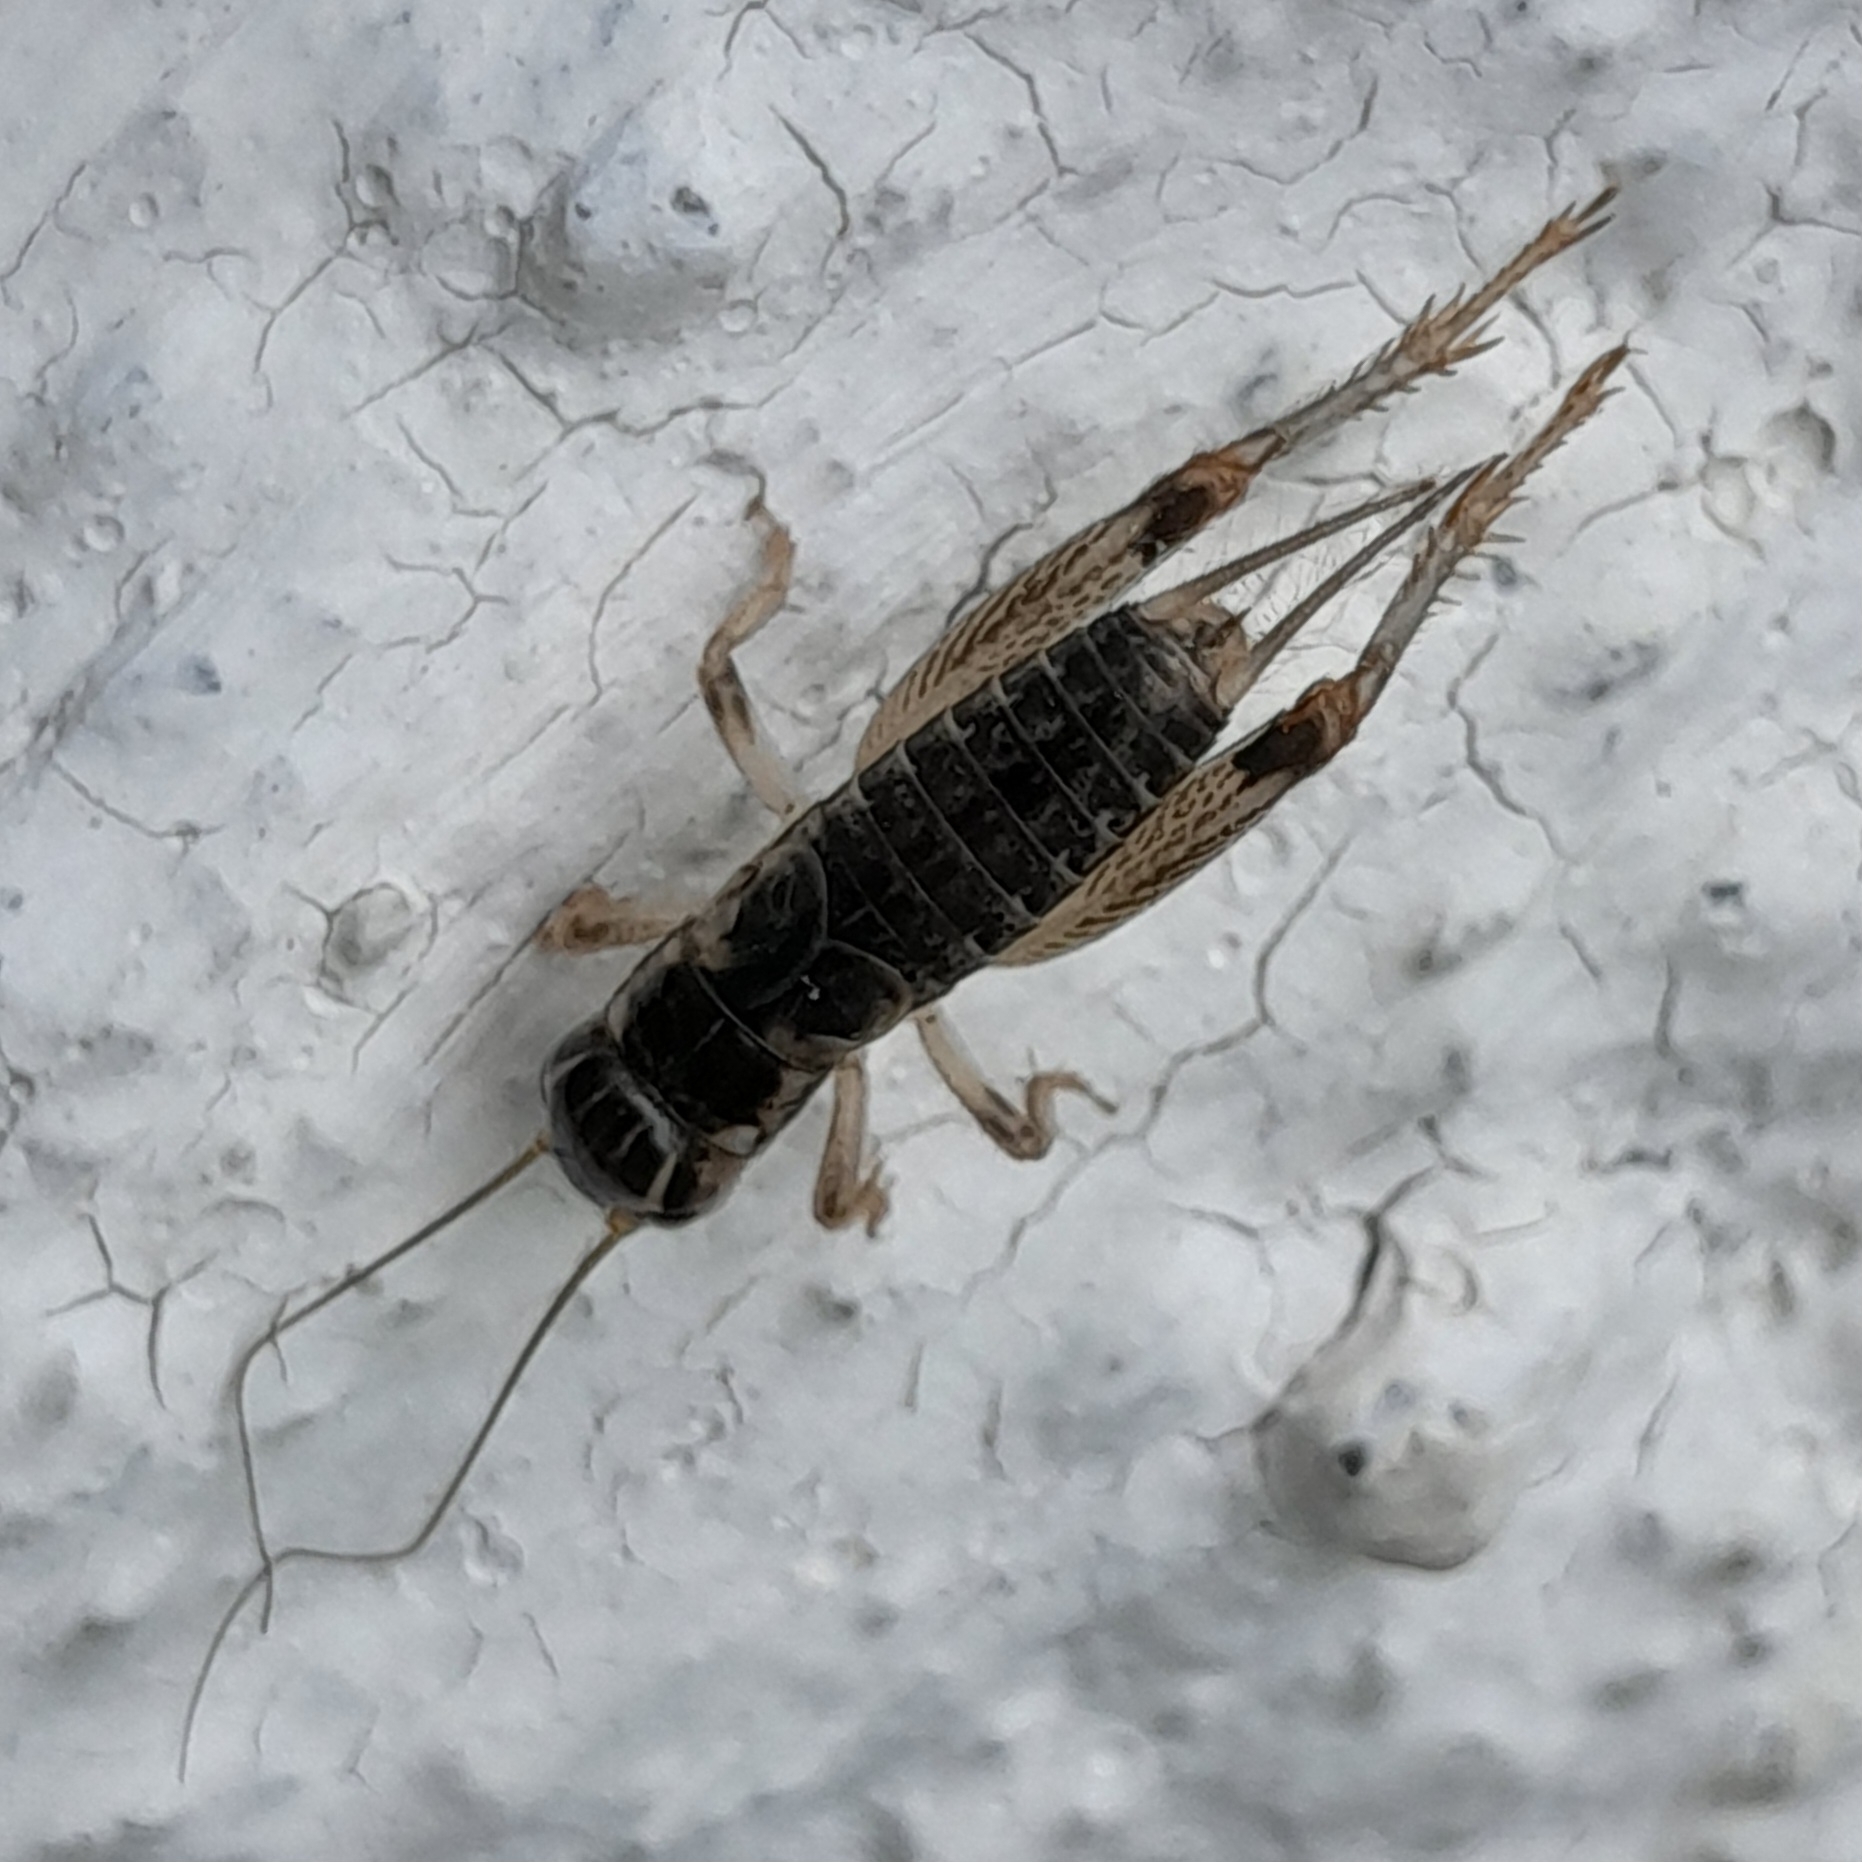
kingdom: Animalia
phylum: Arthropoda
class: Insecta
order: Orthoptera
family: Gryllidae
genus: Eugryllodes
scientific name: Eugryllodes escalerae
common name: Iberian mountain-cricket
